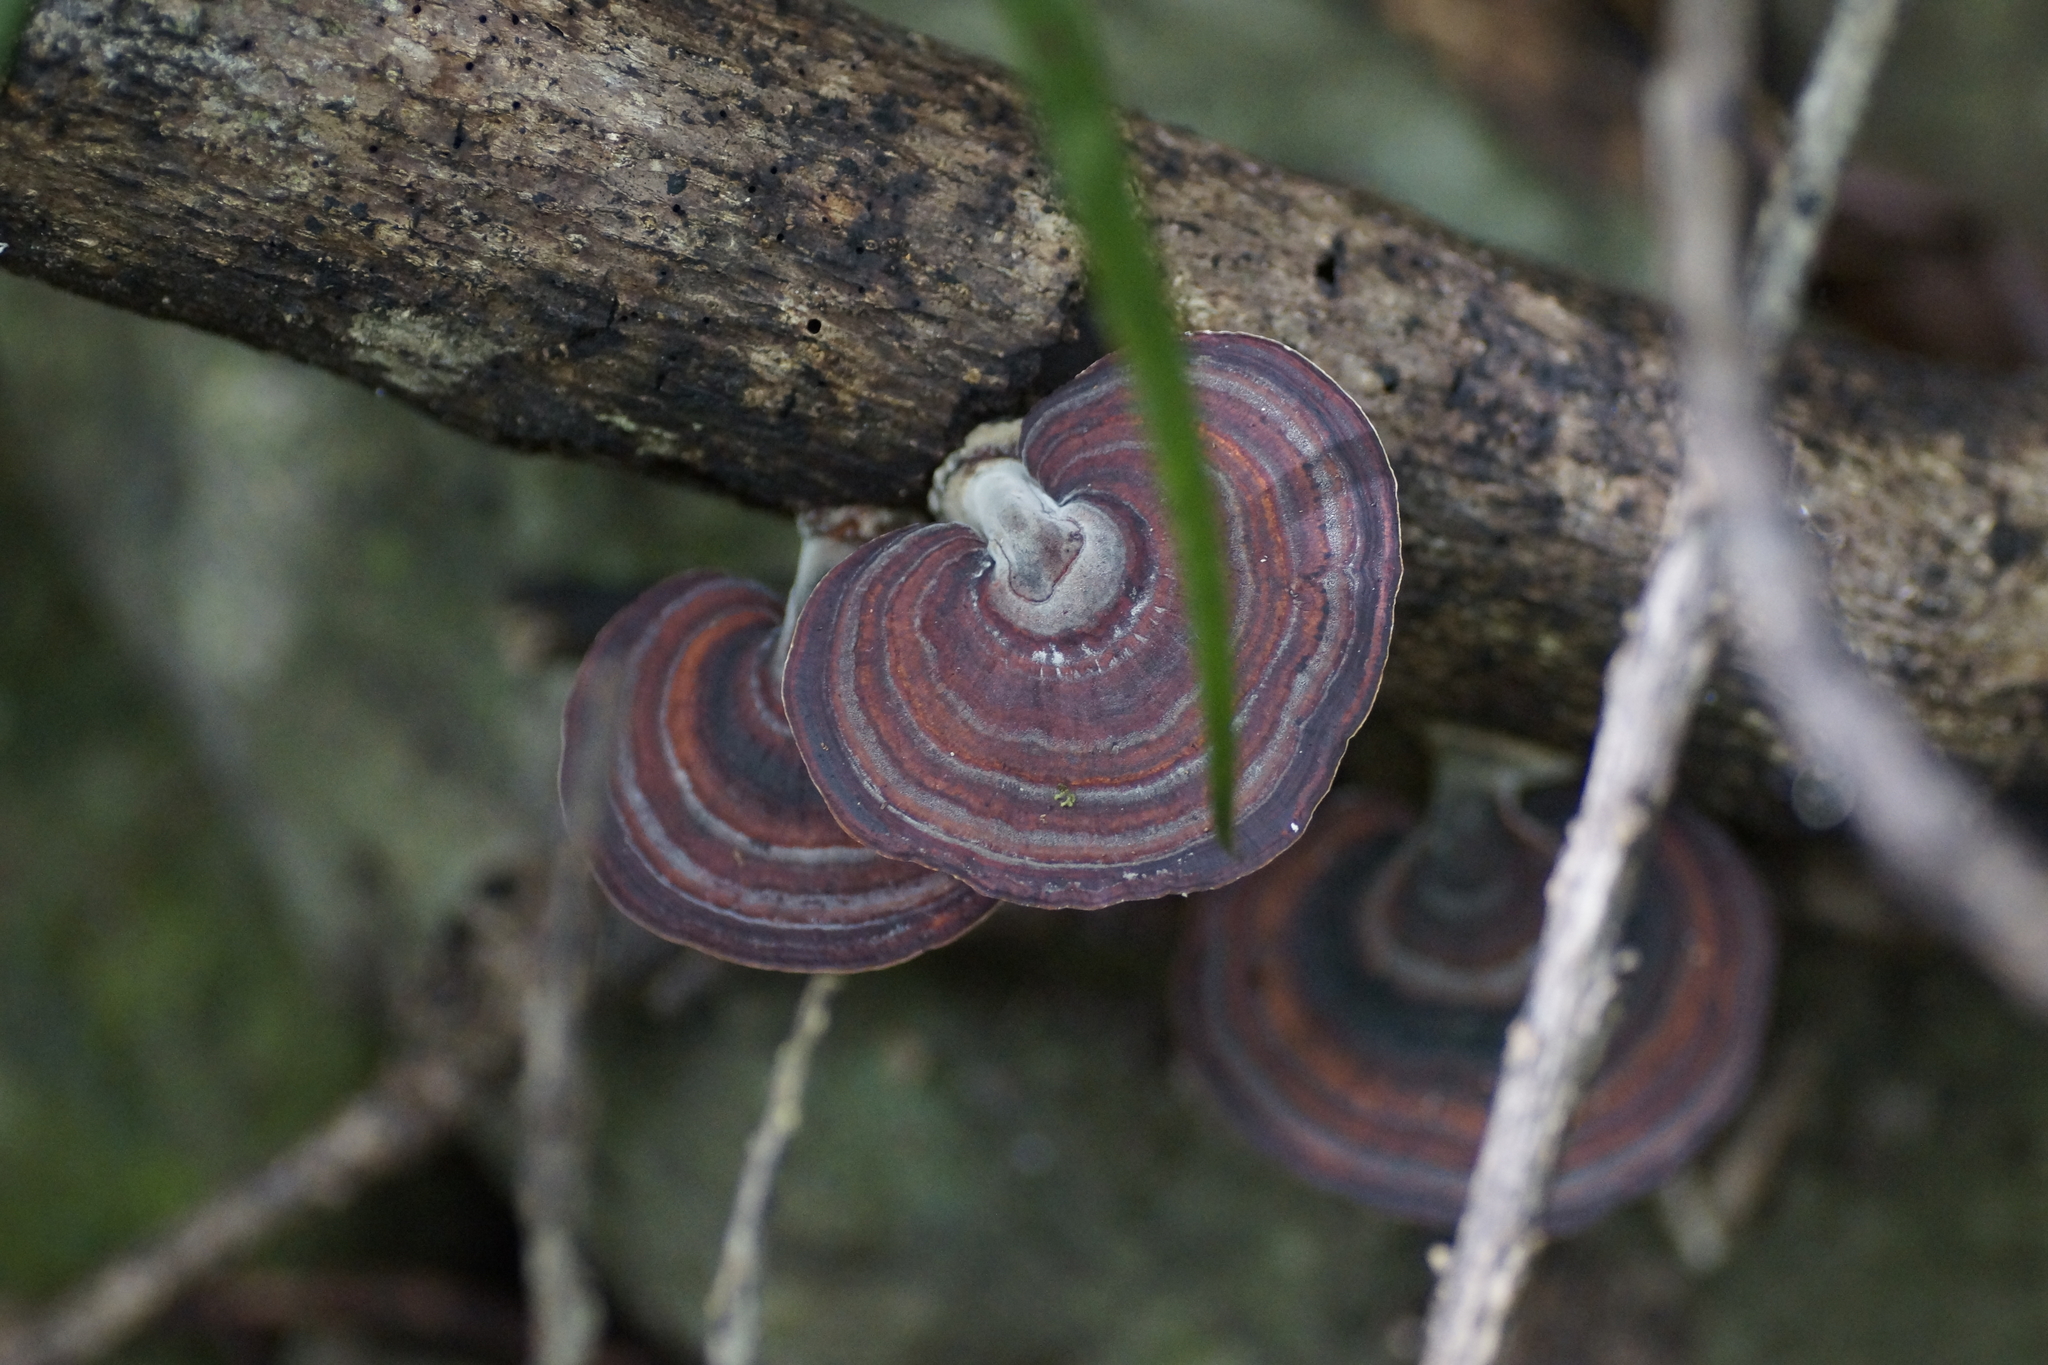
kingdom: Fungi
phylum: Basidiomycota
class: Agaricomycetes
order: Polyporales
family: Polyporaceae
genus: Microporus
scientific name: Microporus affinis
